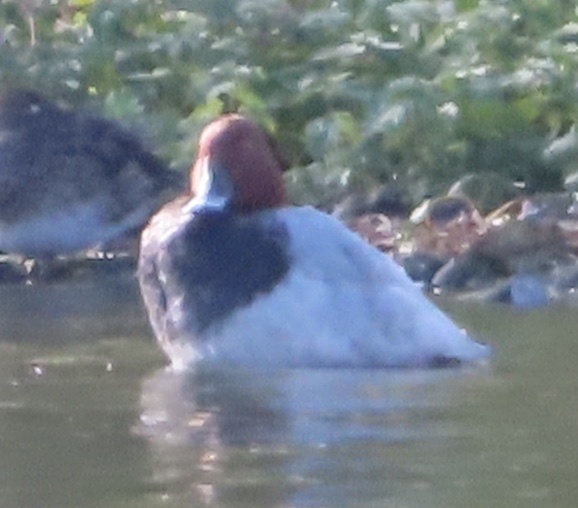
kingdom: Animalia
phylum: Chordata
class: Aves
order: Anseriformes
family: Anatidae
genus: Aythya
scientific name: Aythya ferina
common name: Common pochard
